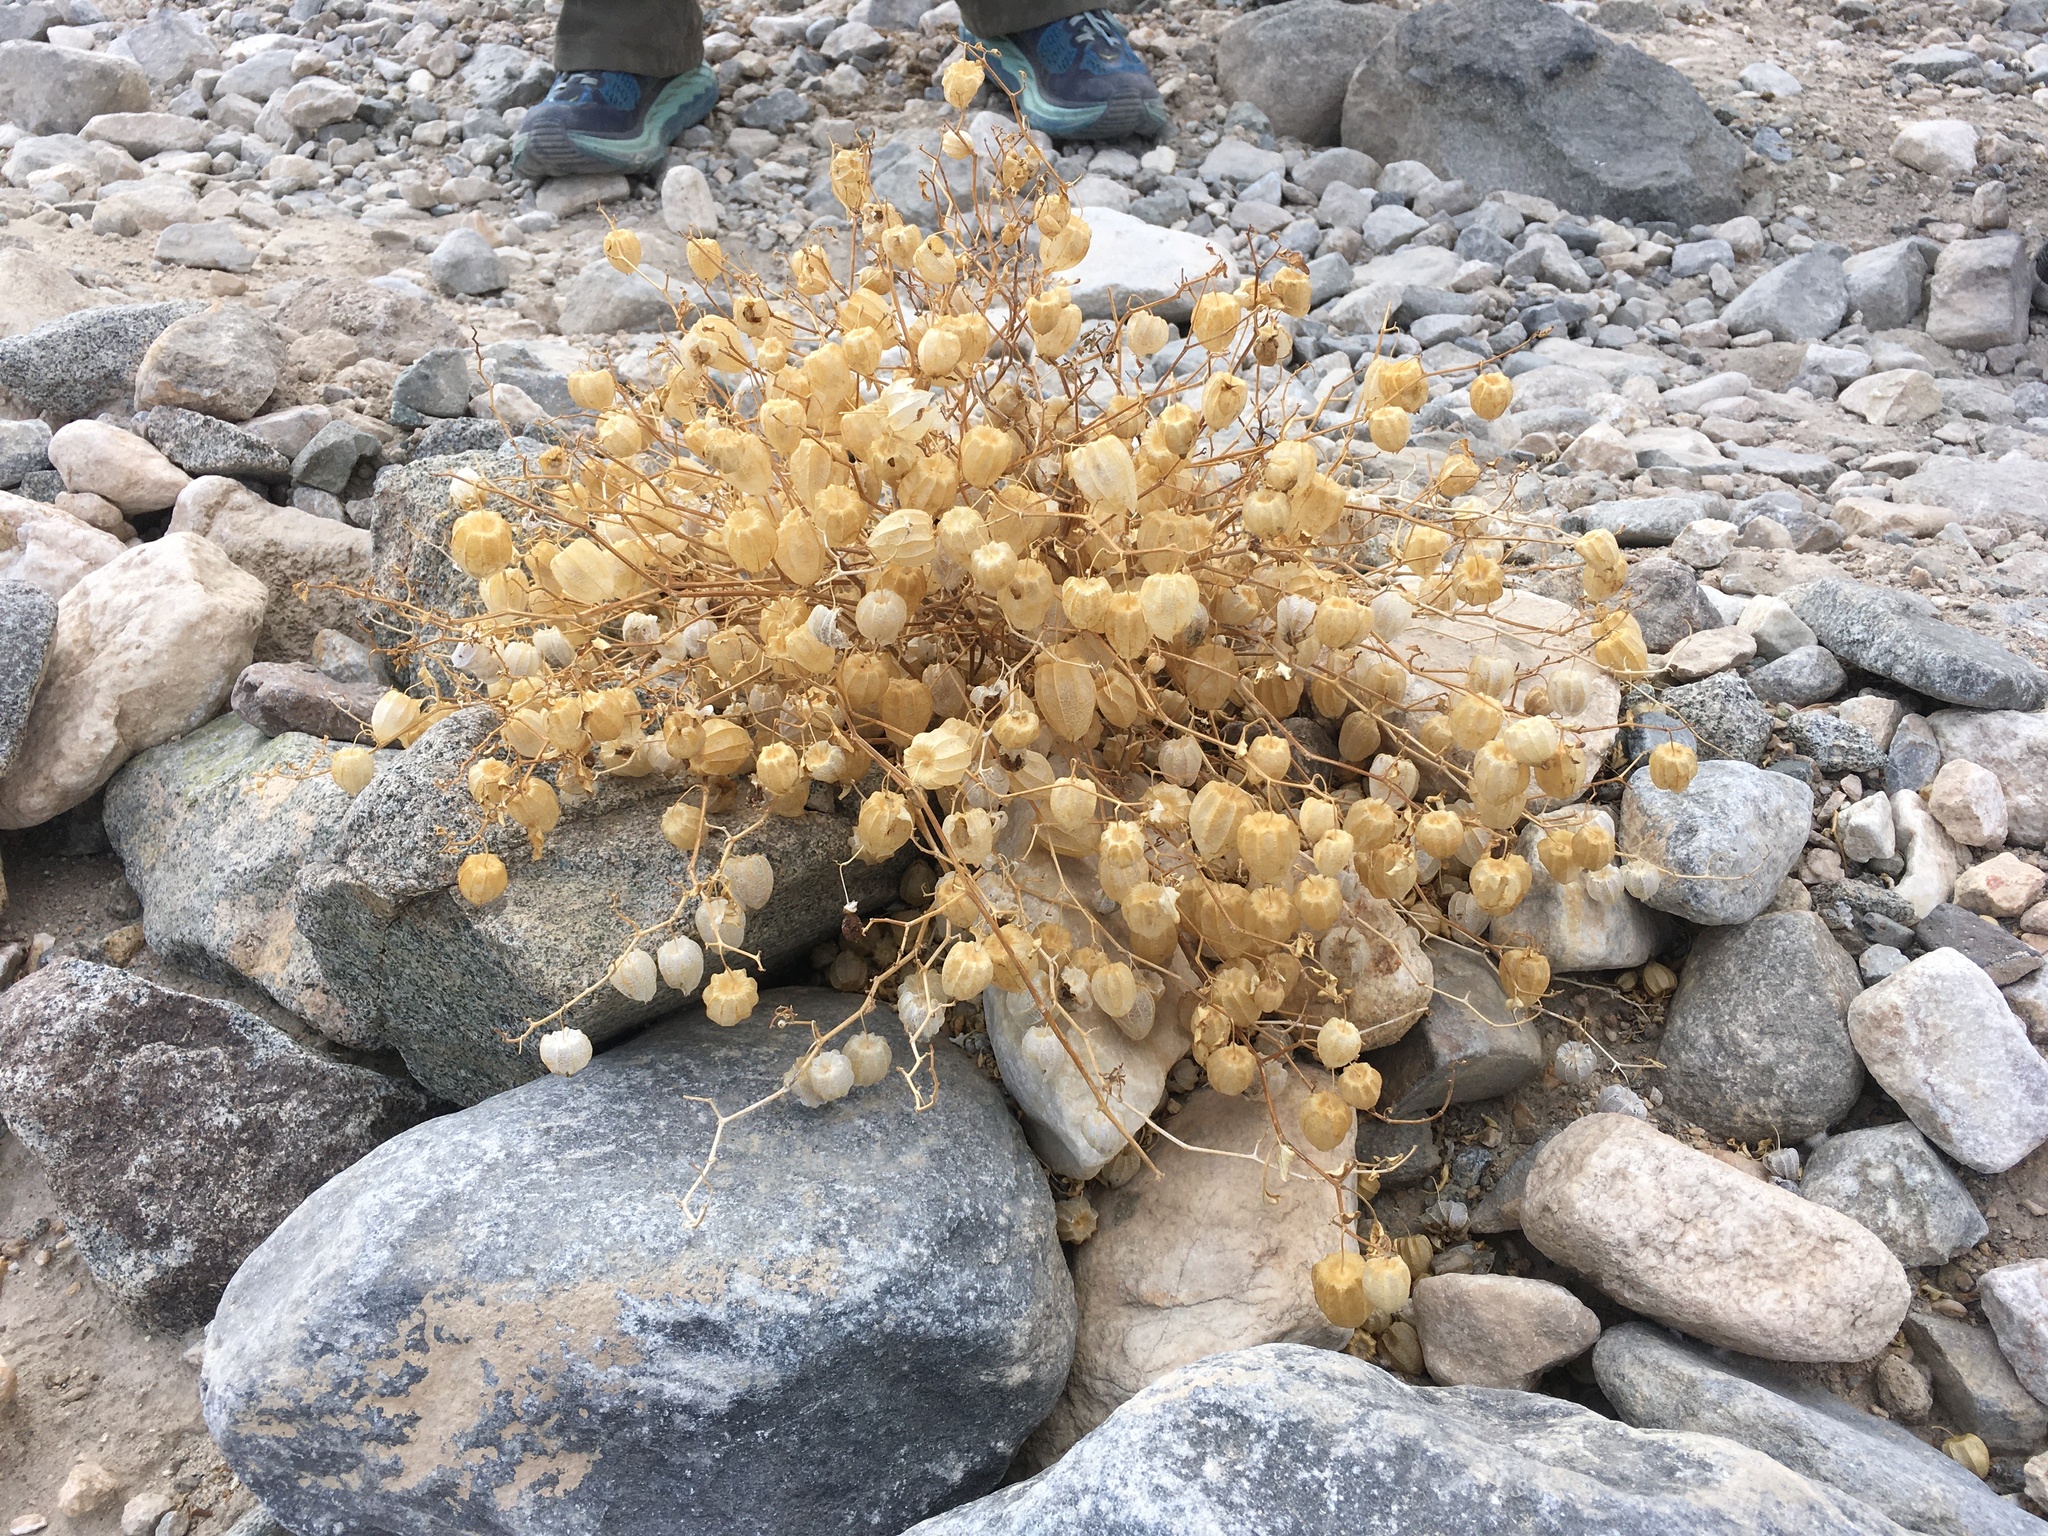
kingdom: Plantae
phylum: Tracheophyta
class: Magnoliopsida
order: Solanales
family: Solanaceae
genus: Physalis
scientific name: Physalis crassifolia
